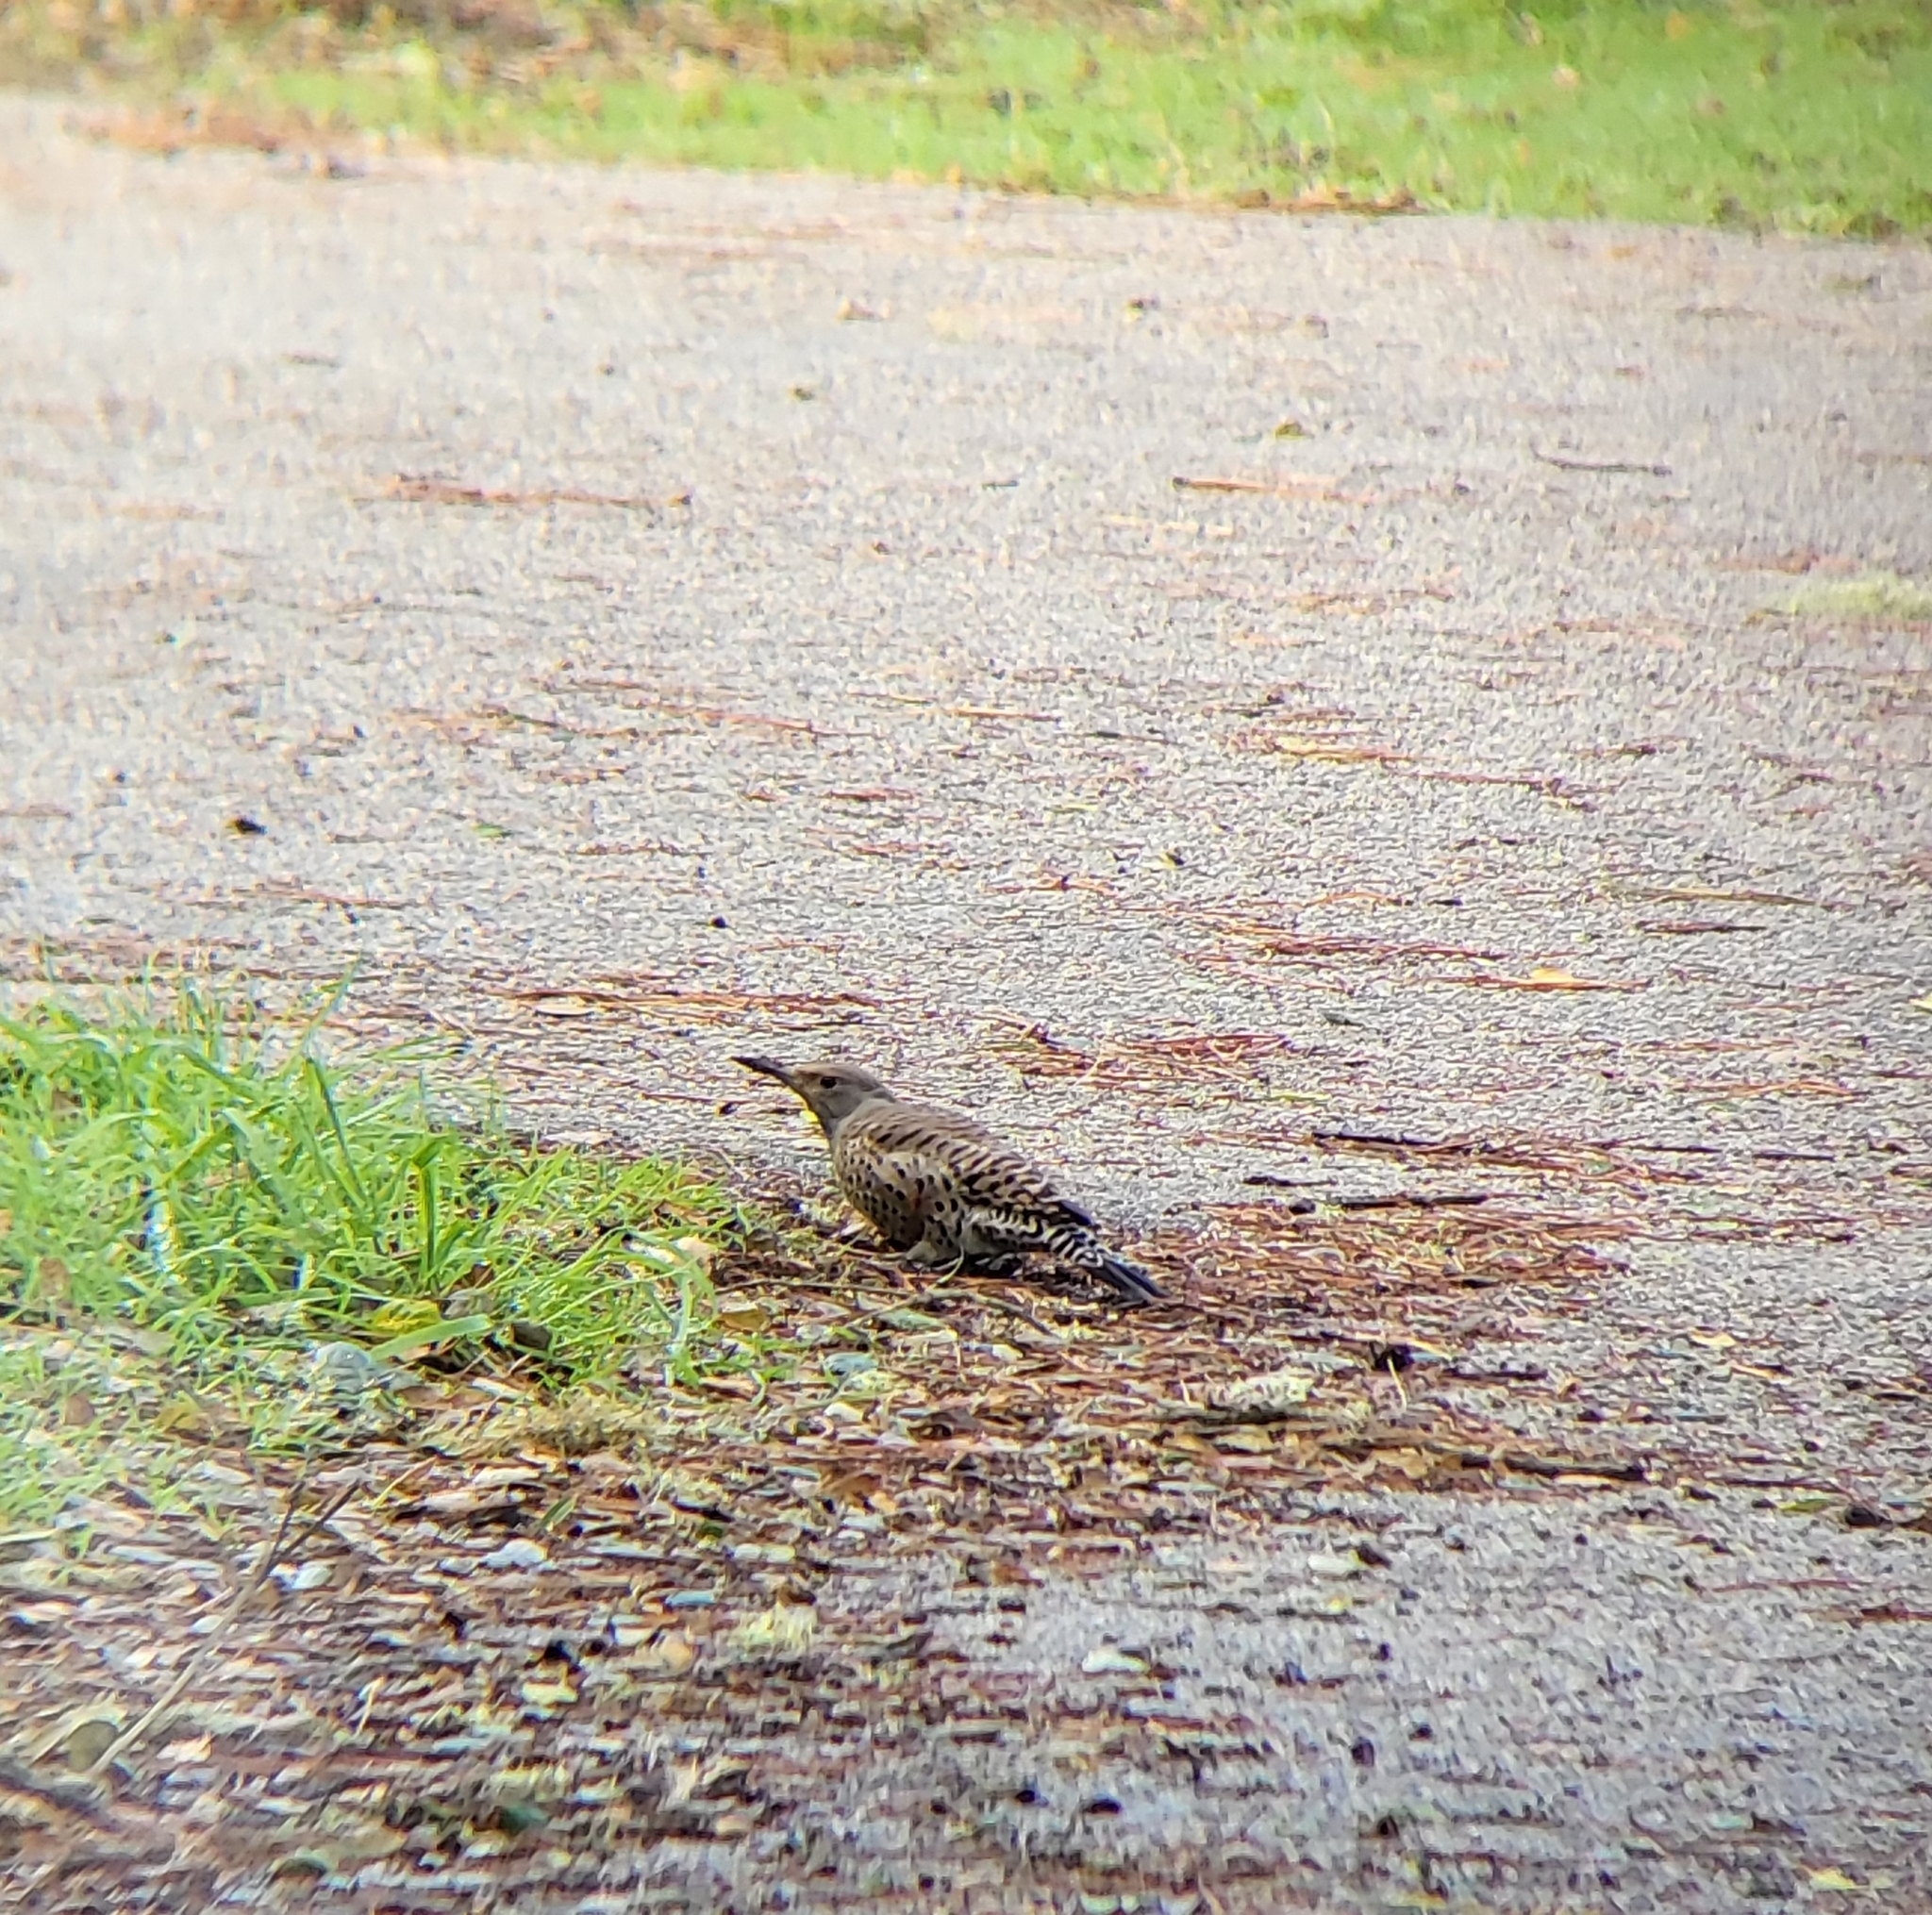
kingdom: Animalia
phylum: Chordata
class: Aves
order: Piciformes
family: Picidae
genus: Colaptes
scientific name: Colaptes auratus
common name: Northern flicker
